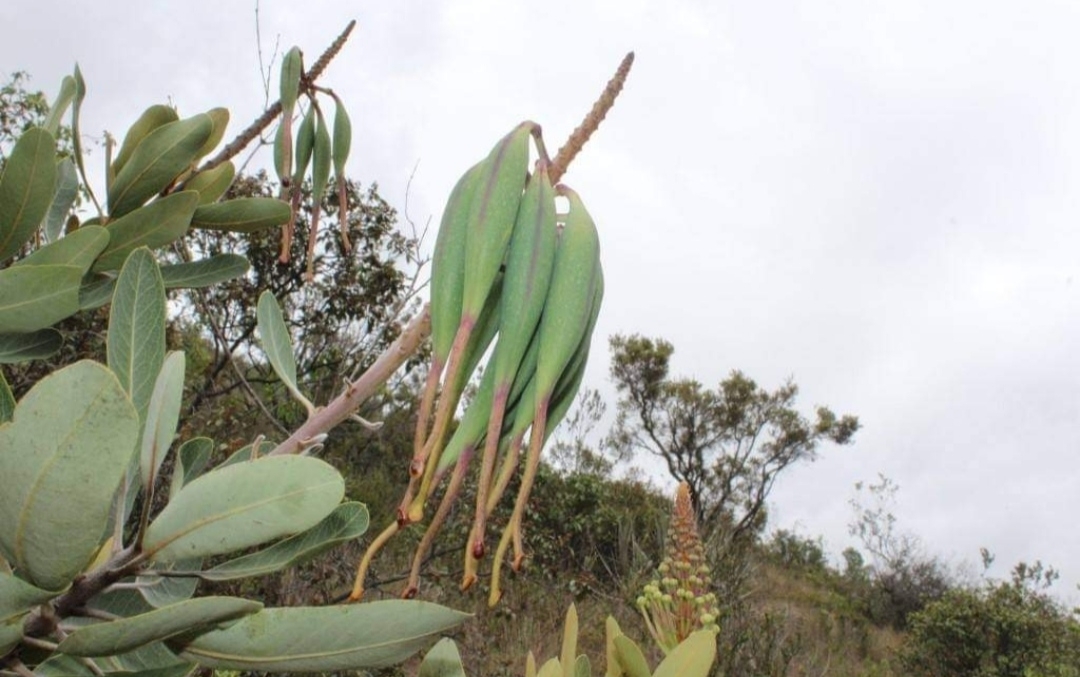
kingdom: Plantae
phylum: Tracheophyta
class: Magnoliopsida
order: Proteales
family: Proteaceae
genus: Oreocallis
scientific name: Oreocallis grandiflora
